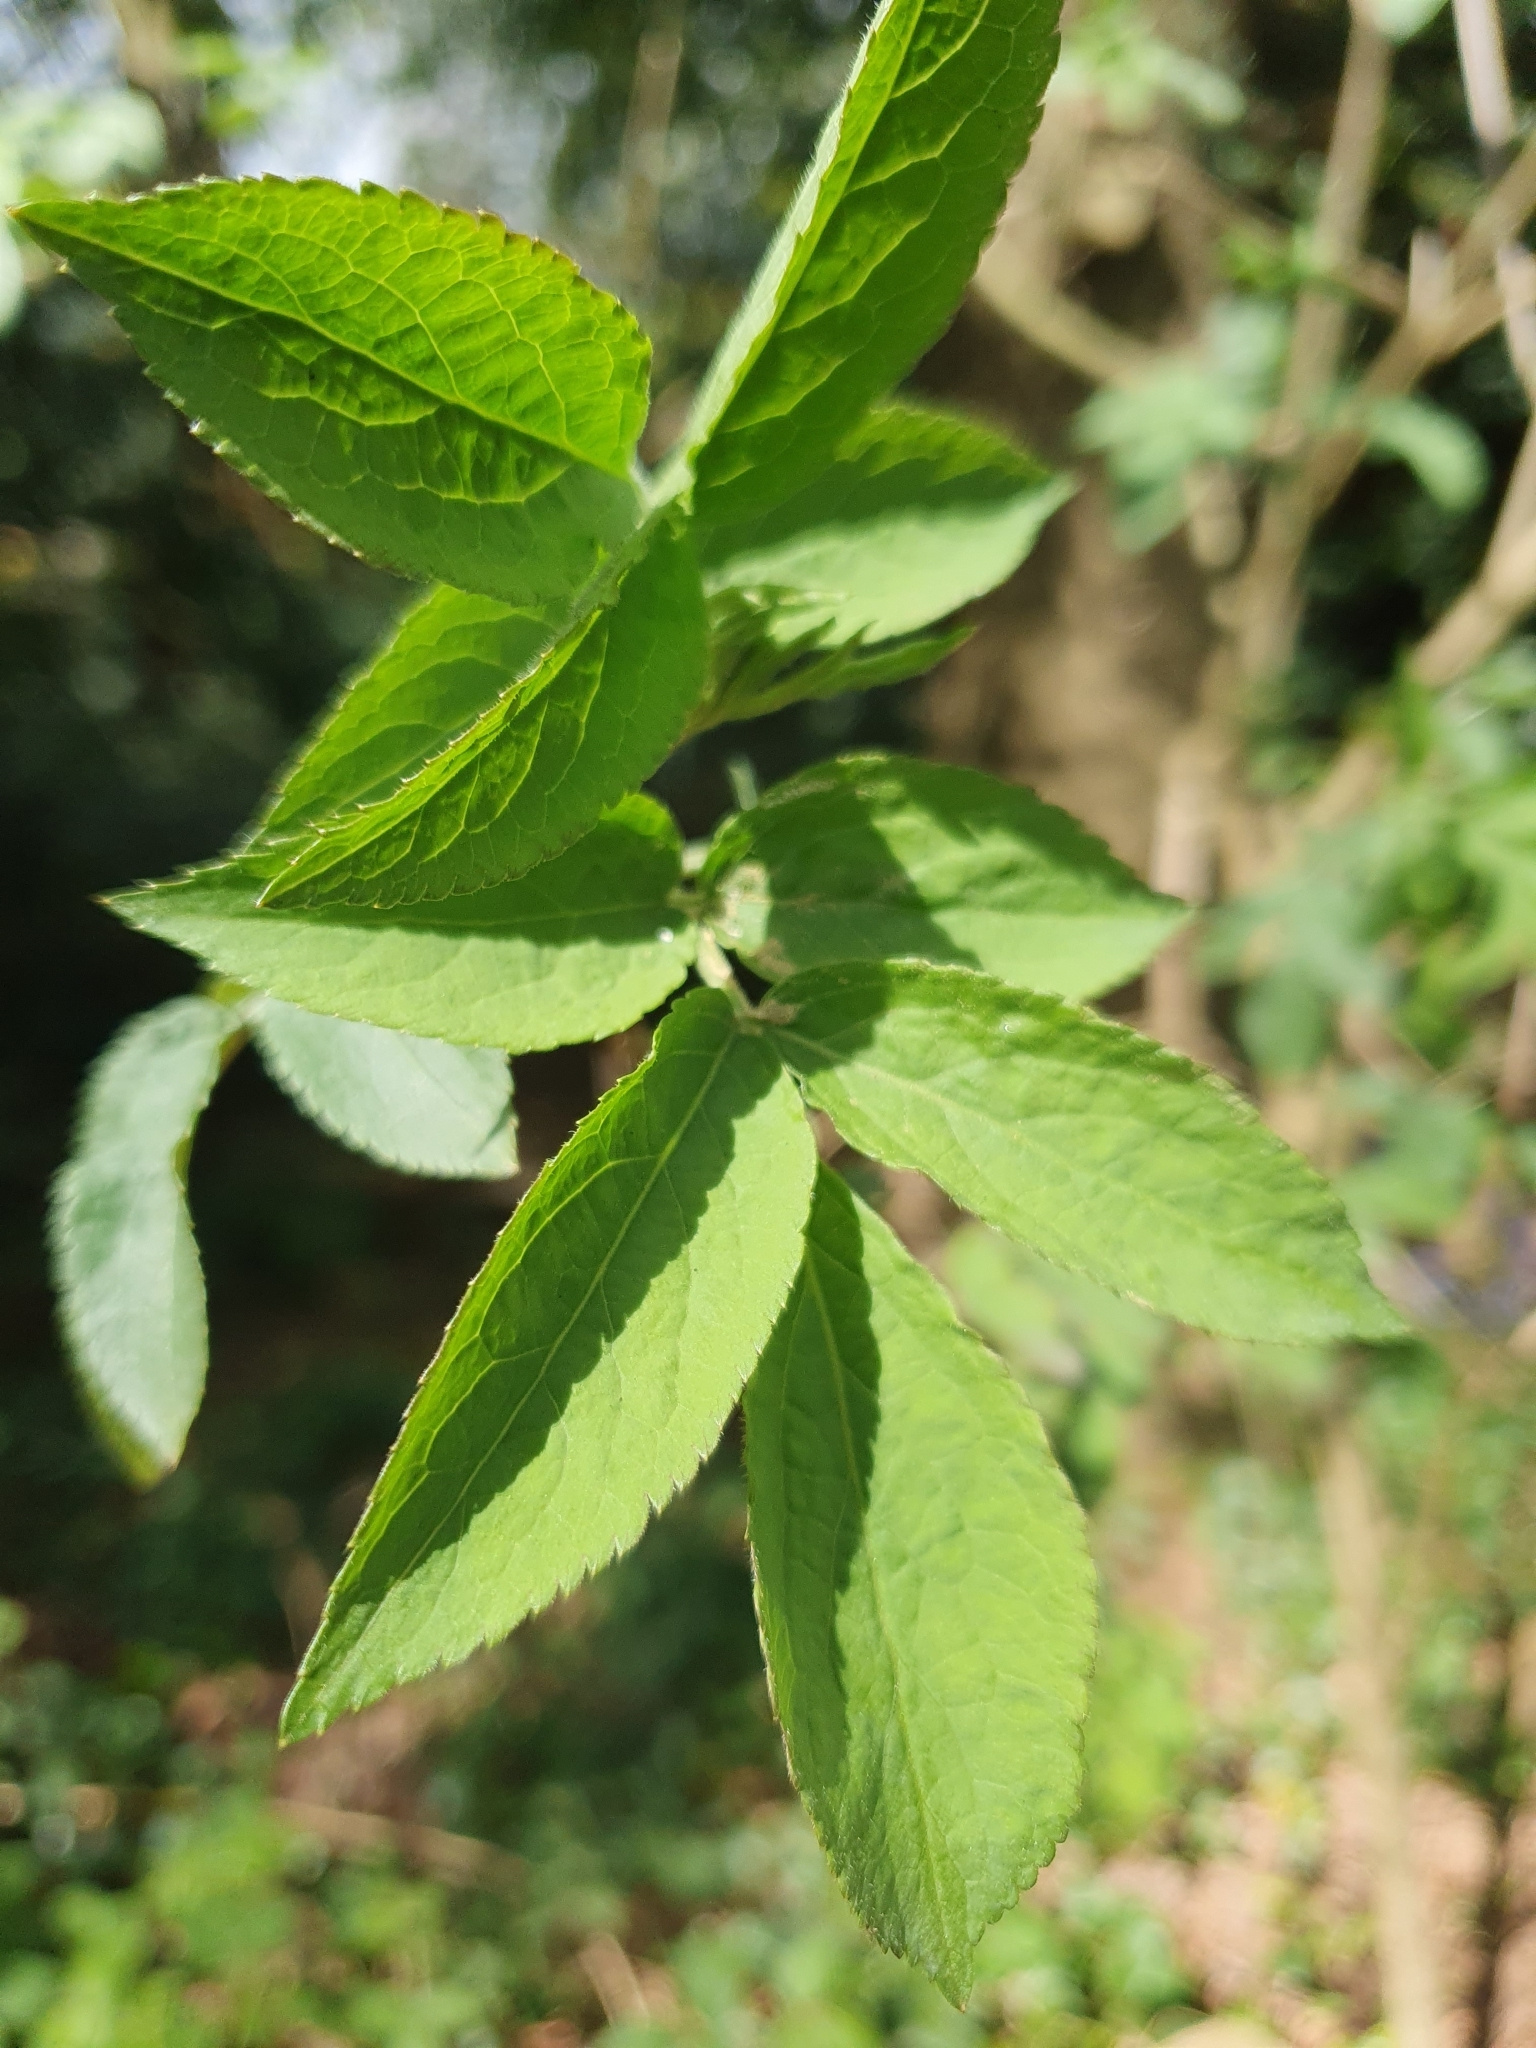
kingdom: Plantae
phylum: Tracheophyta
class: Magnoliopsida
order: Dipsacales
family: Viburnaceae
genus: Sambucus
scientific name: Sambucus nigra
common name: Elder
